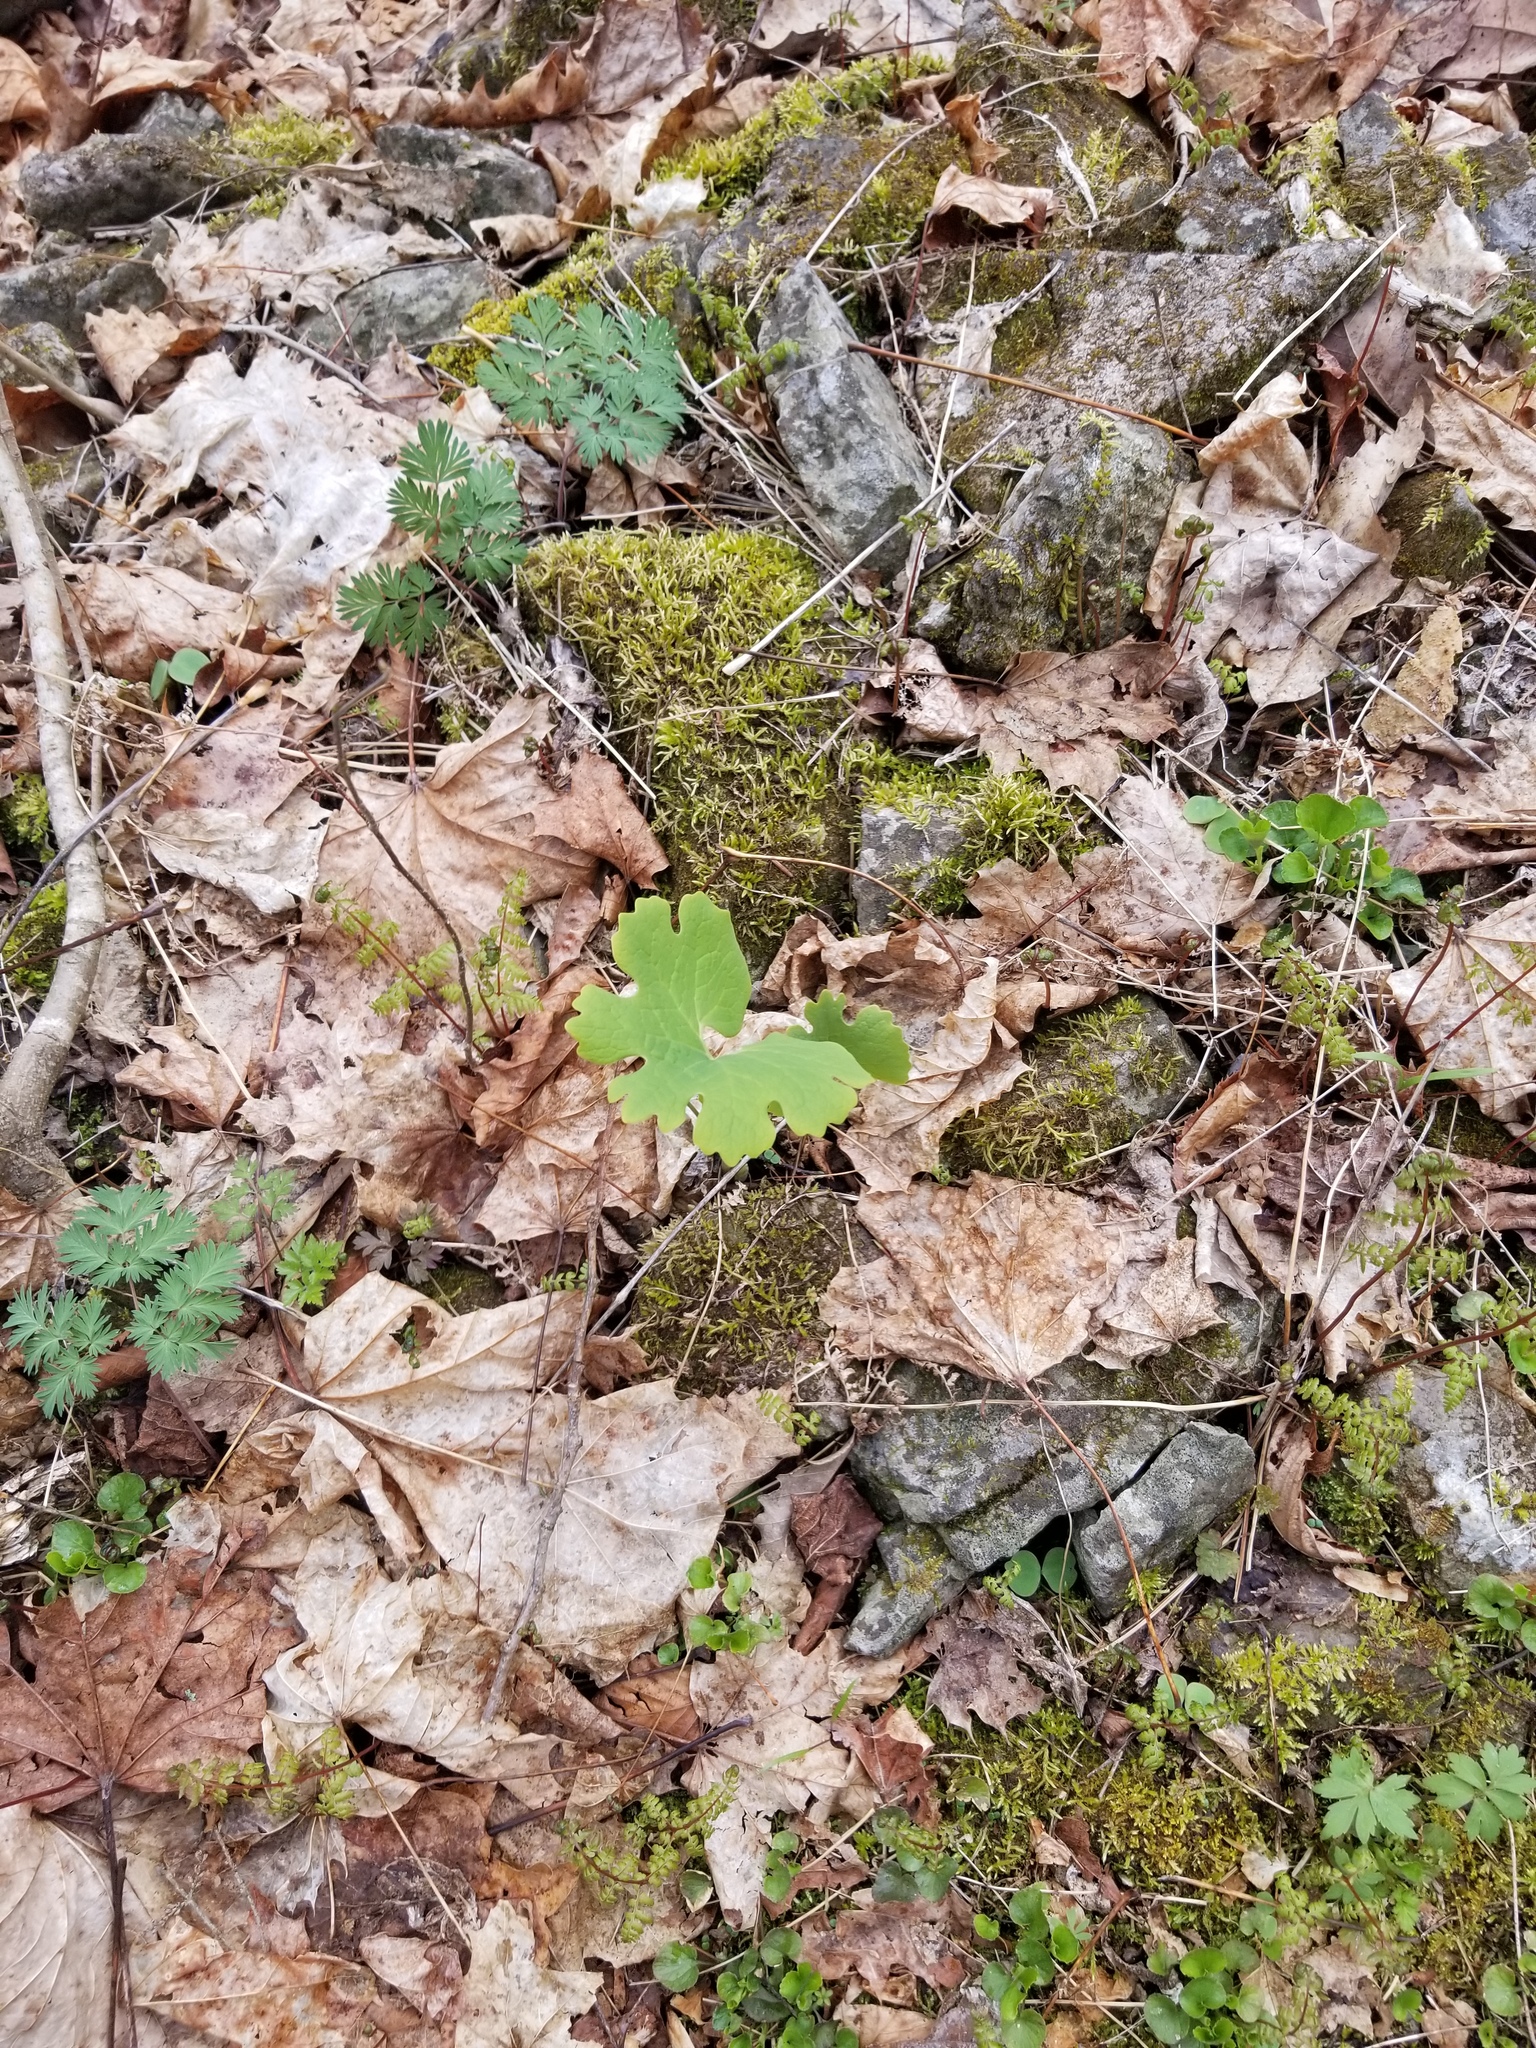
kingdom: Plantae
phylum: Tracheophyta
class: Magnoliopsida
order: Ranunculales
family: Papaveraceae
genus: Sanguinaria
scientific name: Sanguinaria canadensis
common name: Bloodroot
